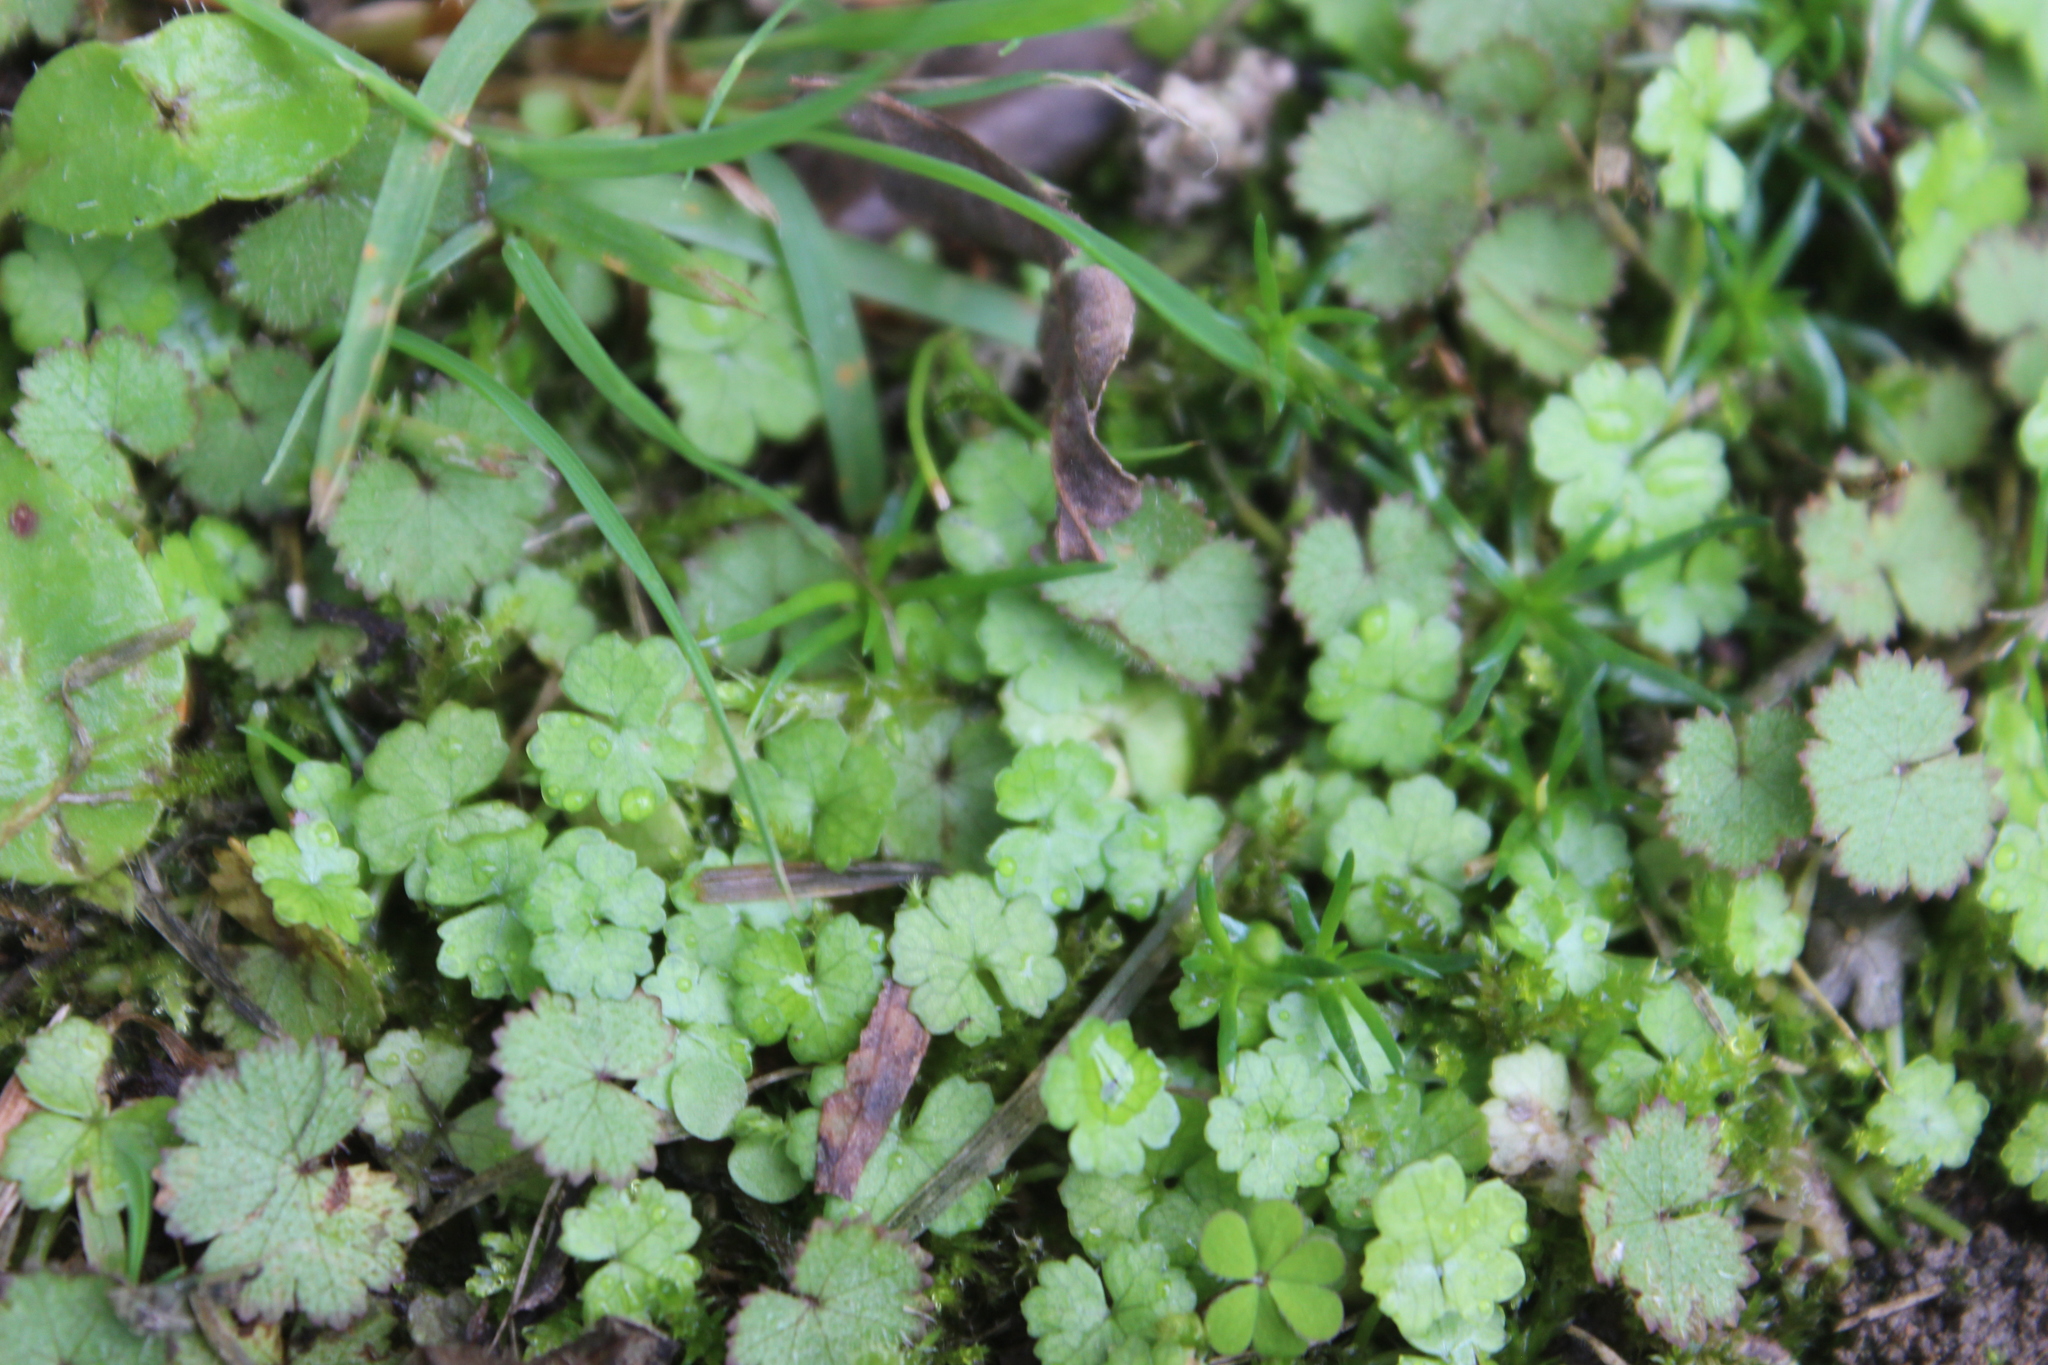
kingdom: Plantae
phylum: Tracheophyta
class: Magnoliopsida
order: Apiales
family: Araliaceae
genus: Hydrocotyle
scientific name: Hydrocotyle heteromeria
